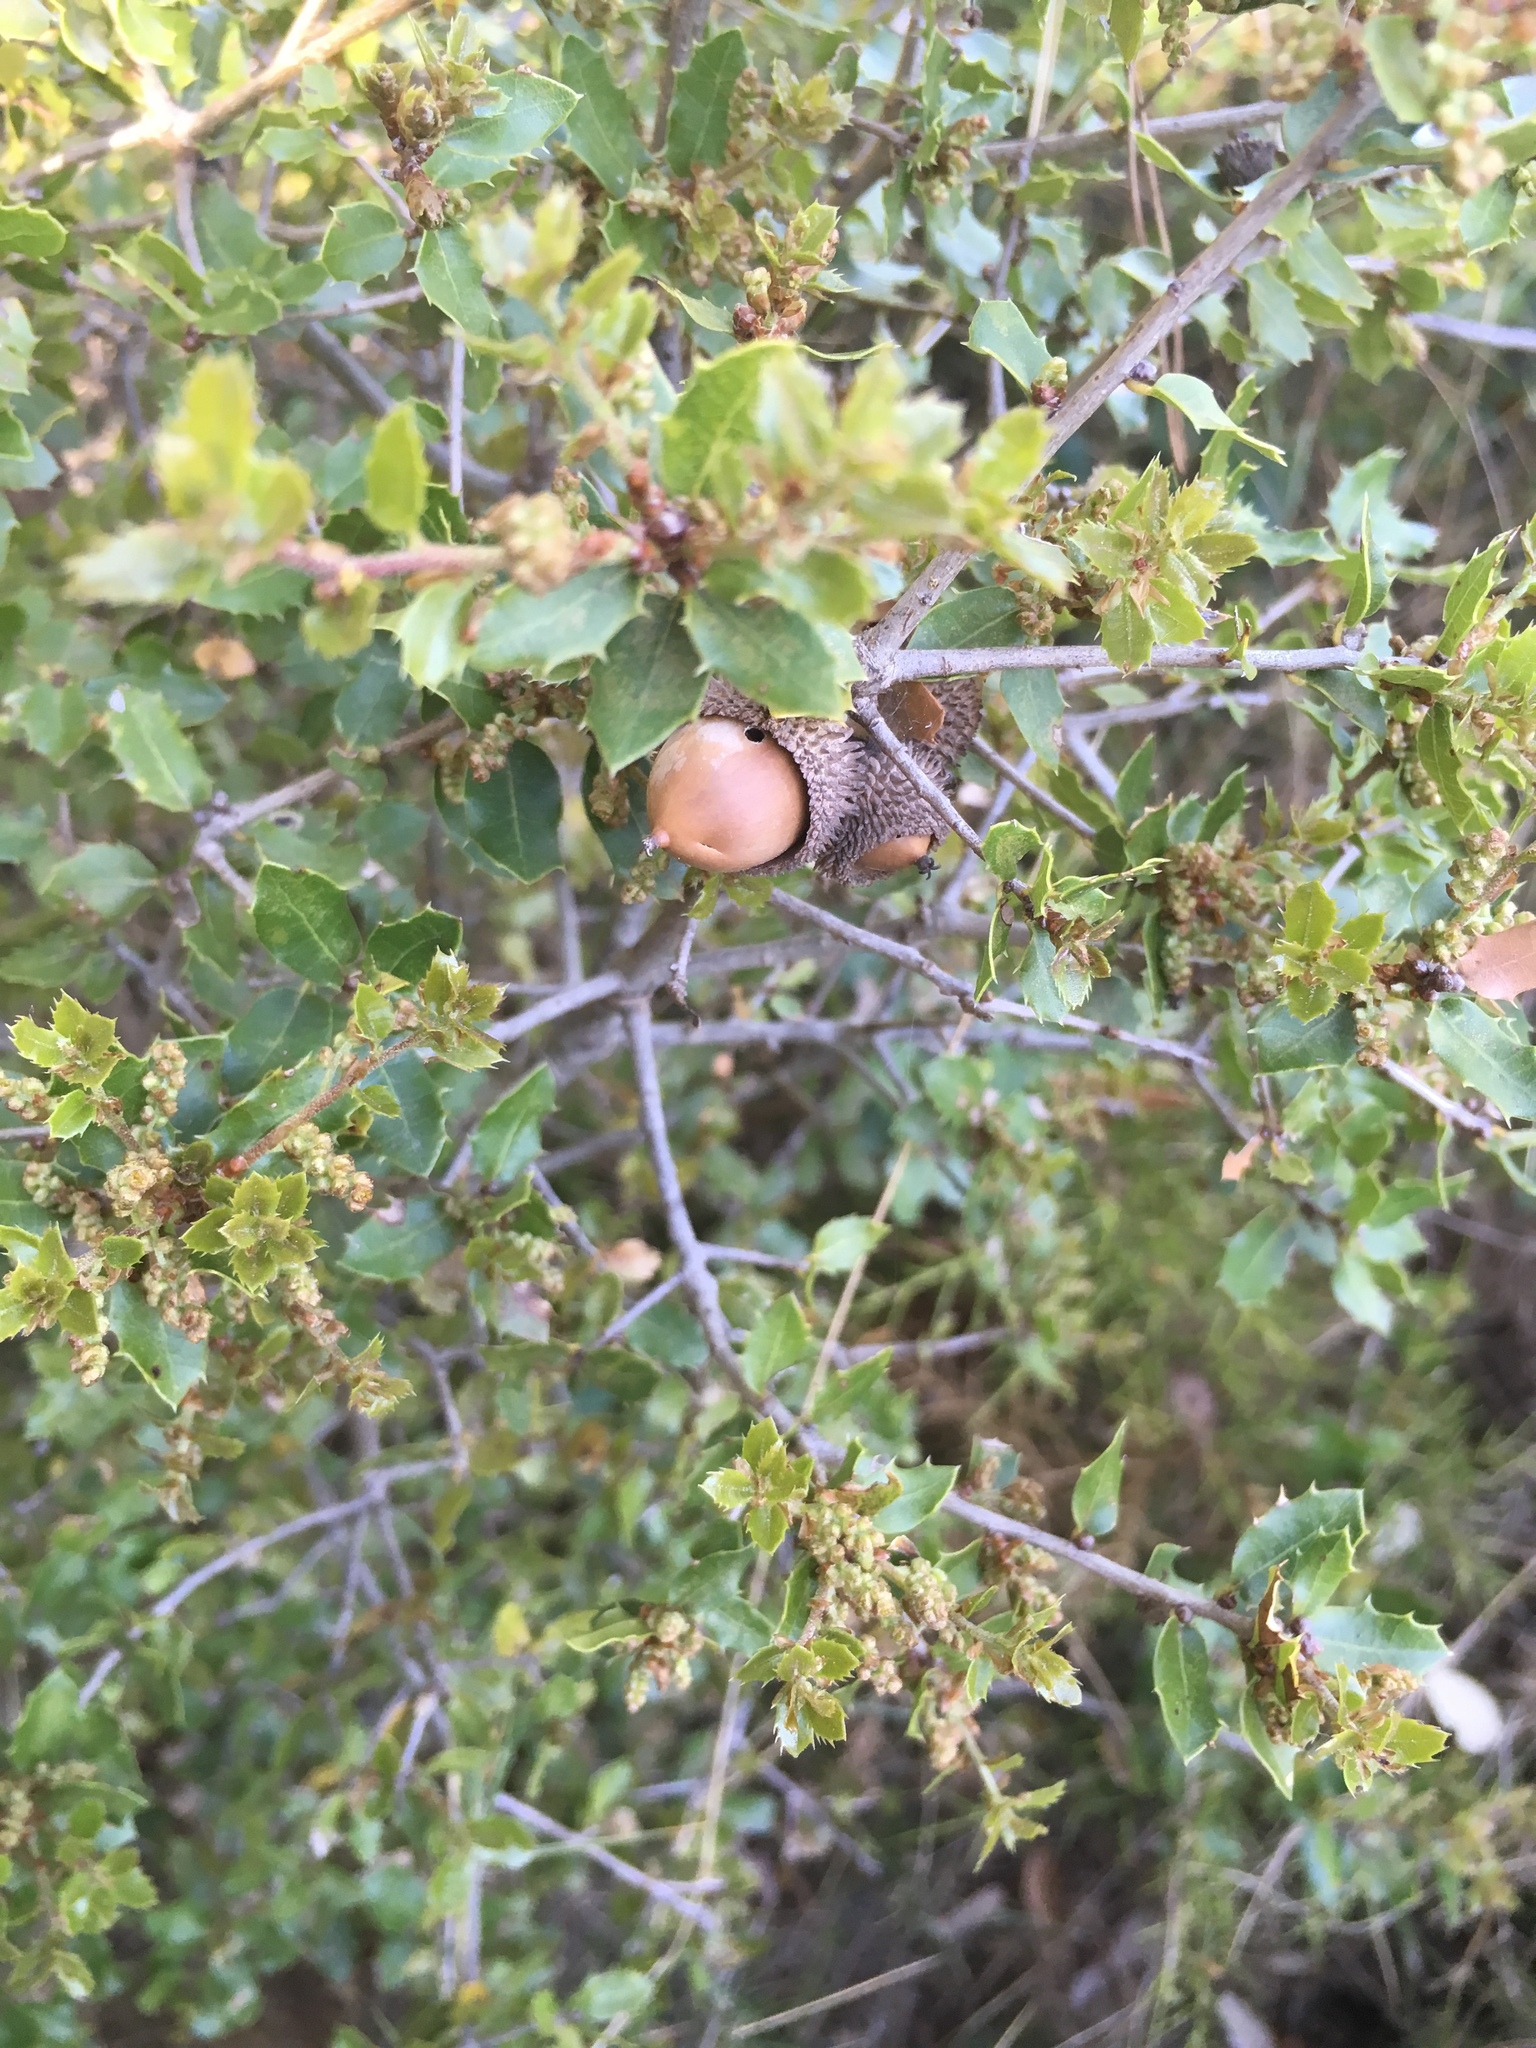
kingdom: Plantae
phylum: Tracheophyta
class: Magnoliopsida
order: Fagales
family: Fagaceae
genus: Quercus
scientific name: Quercus coccifera
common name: Kermes oak
